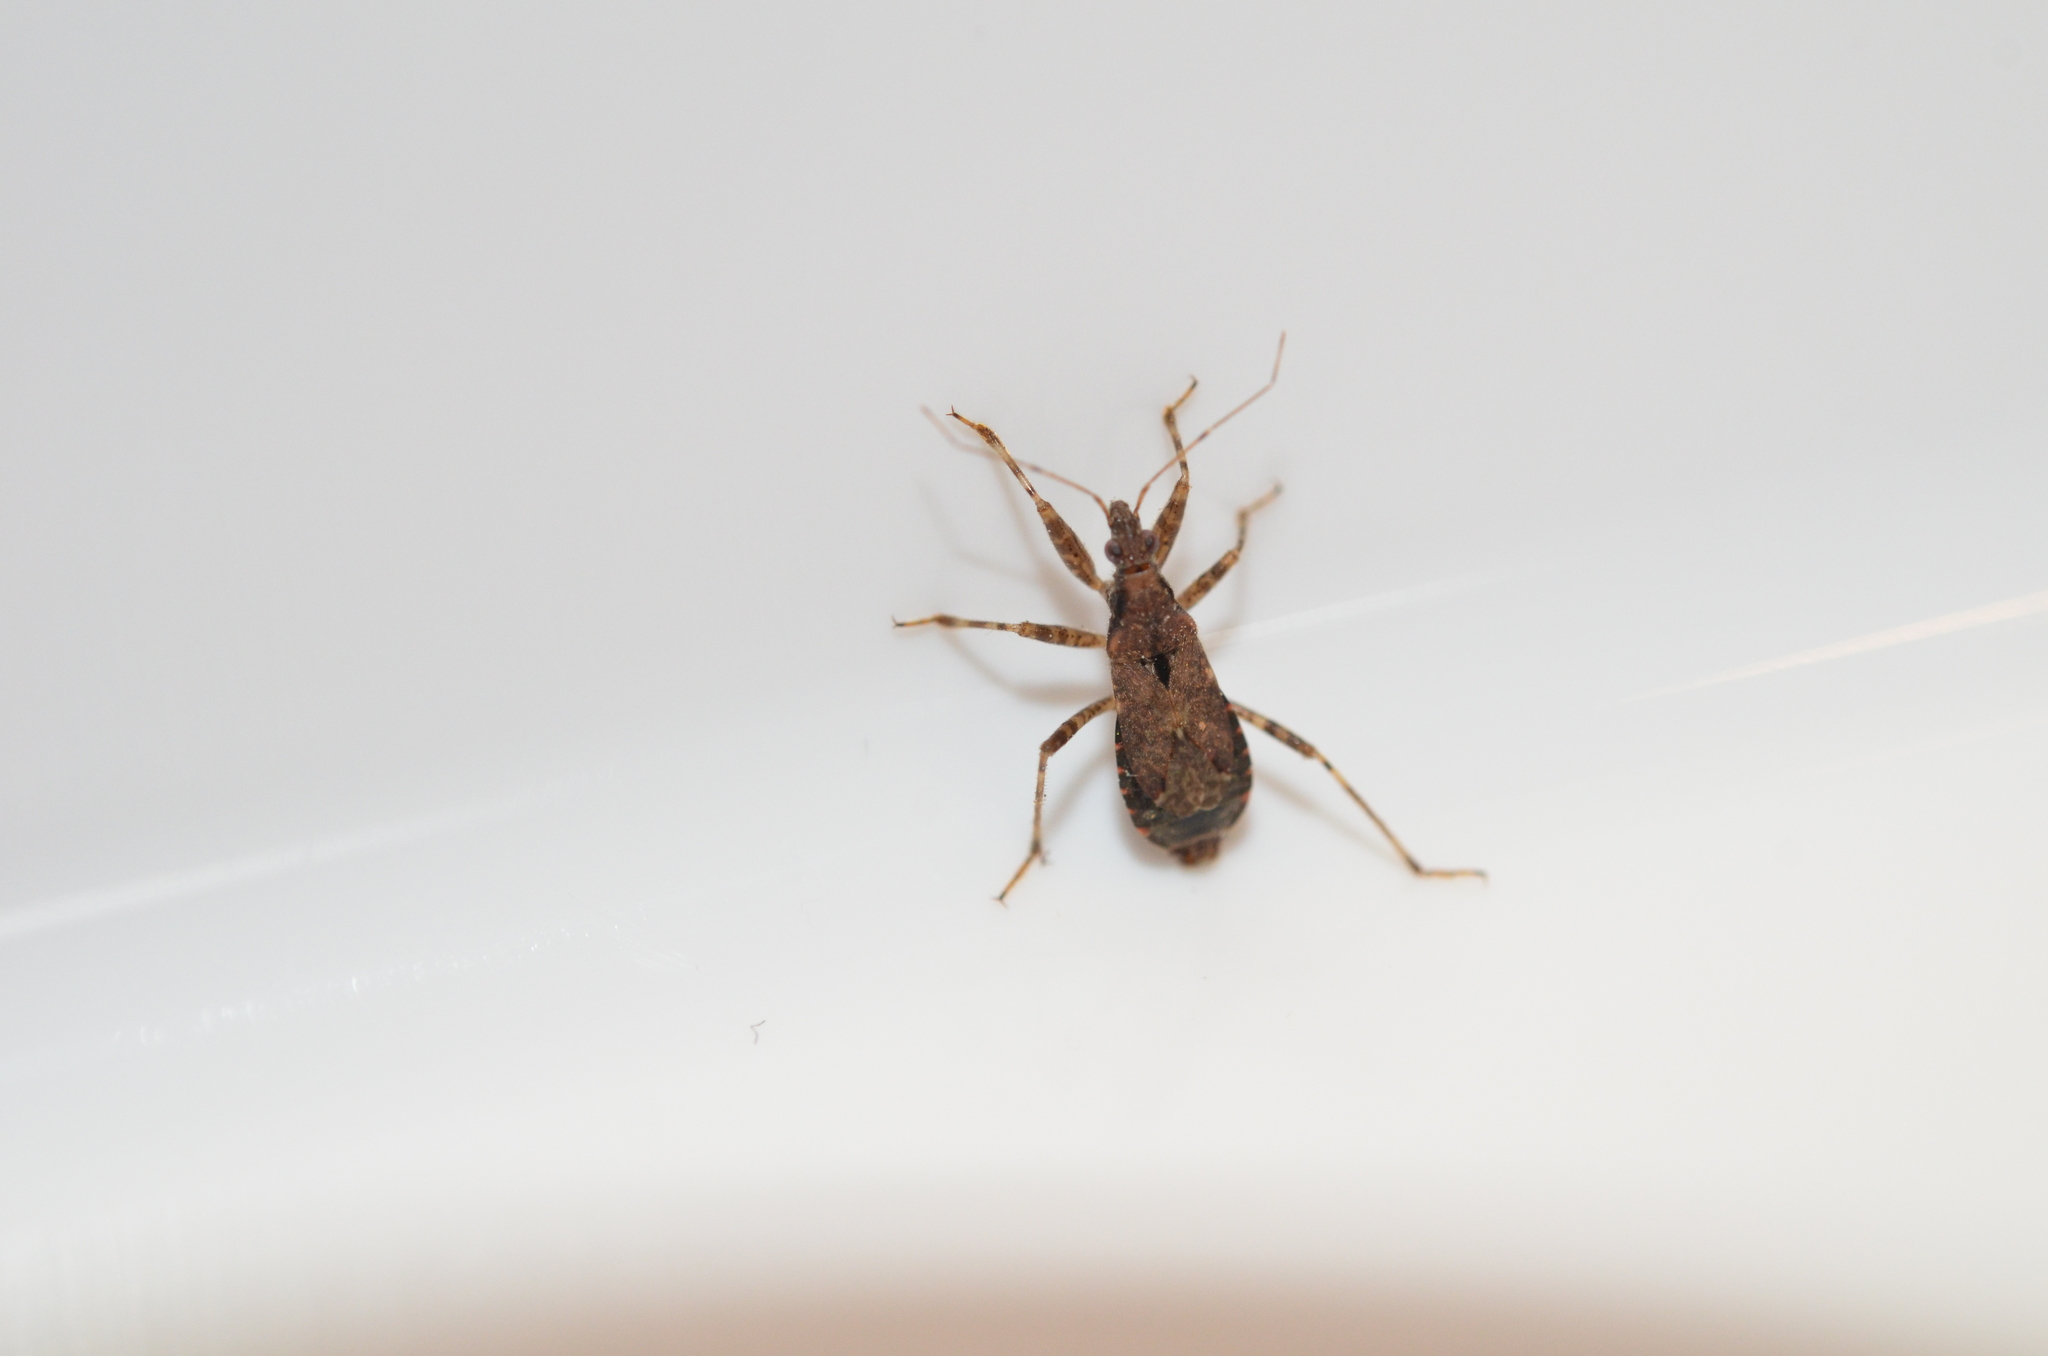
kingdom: Animalia
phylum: Arthropoda
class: Insecta
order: Hemiptera
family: Nabidae
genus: Himacerus
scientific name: Himacerus mirmicoides
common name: Ant damsel bug
